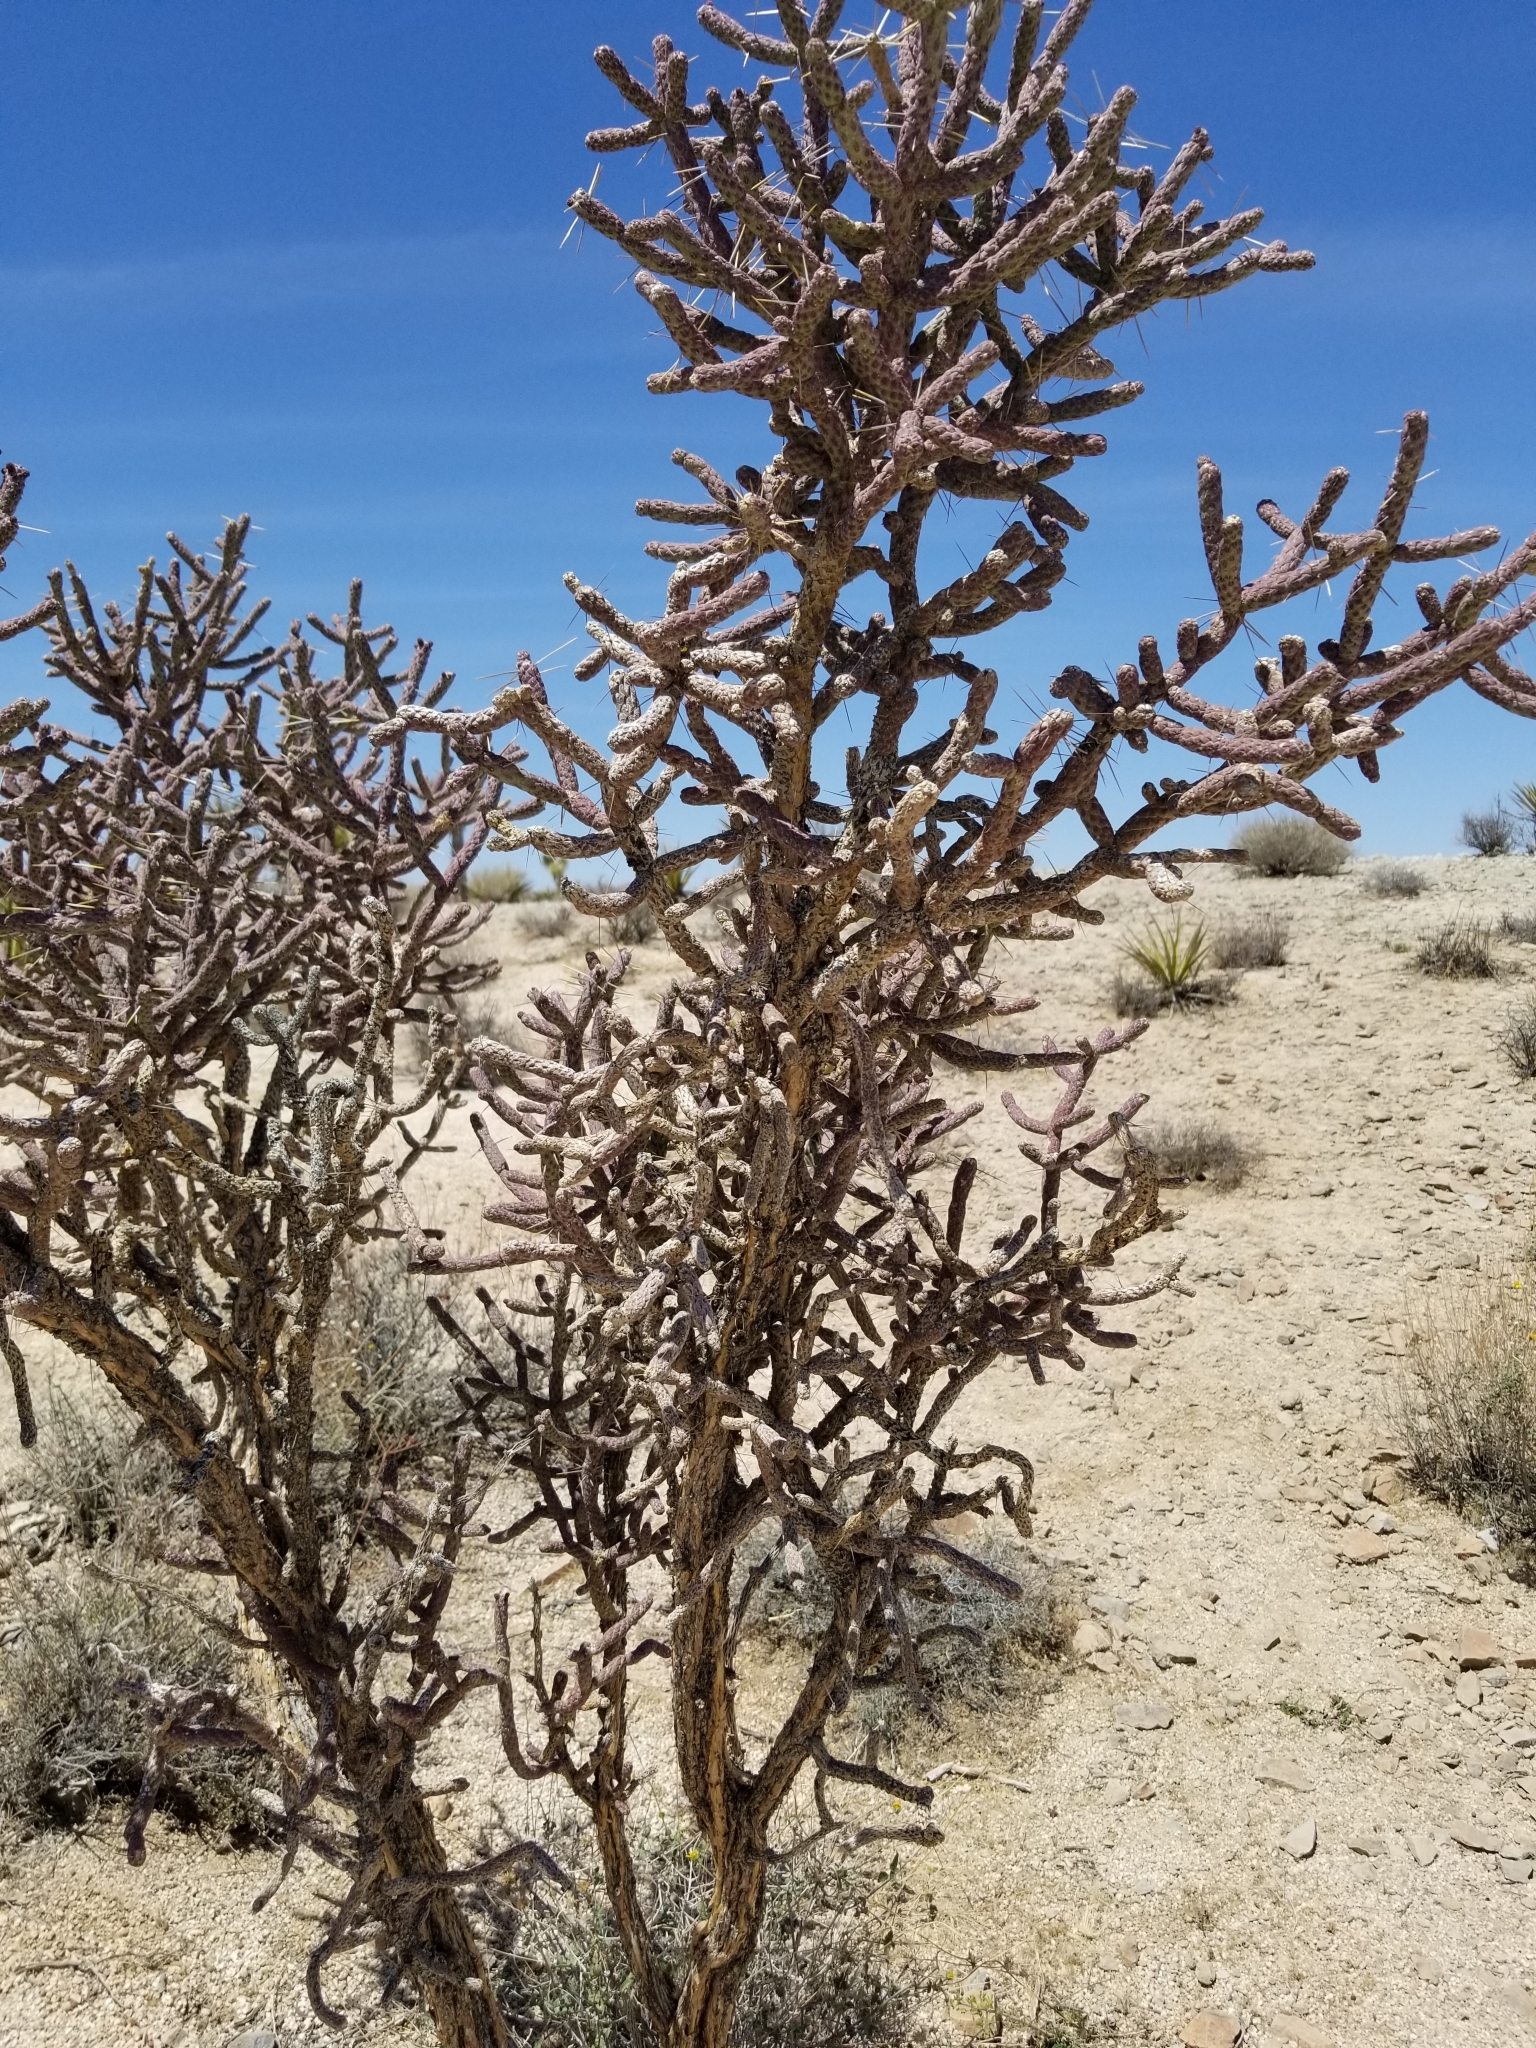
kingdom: Plantae
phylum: Tracheophyta
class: Magnoliopsida
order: Caryophyllales
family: Cactaceae
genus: Cylindropuntia
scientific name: Cylindropuntia ramosissima
